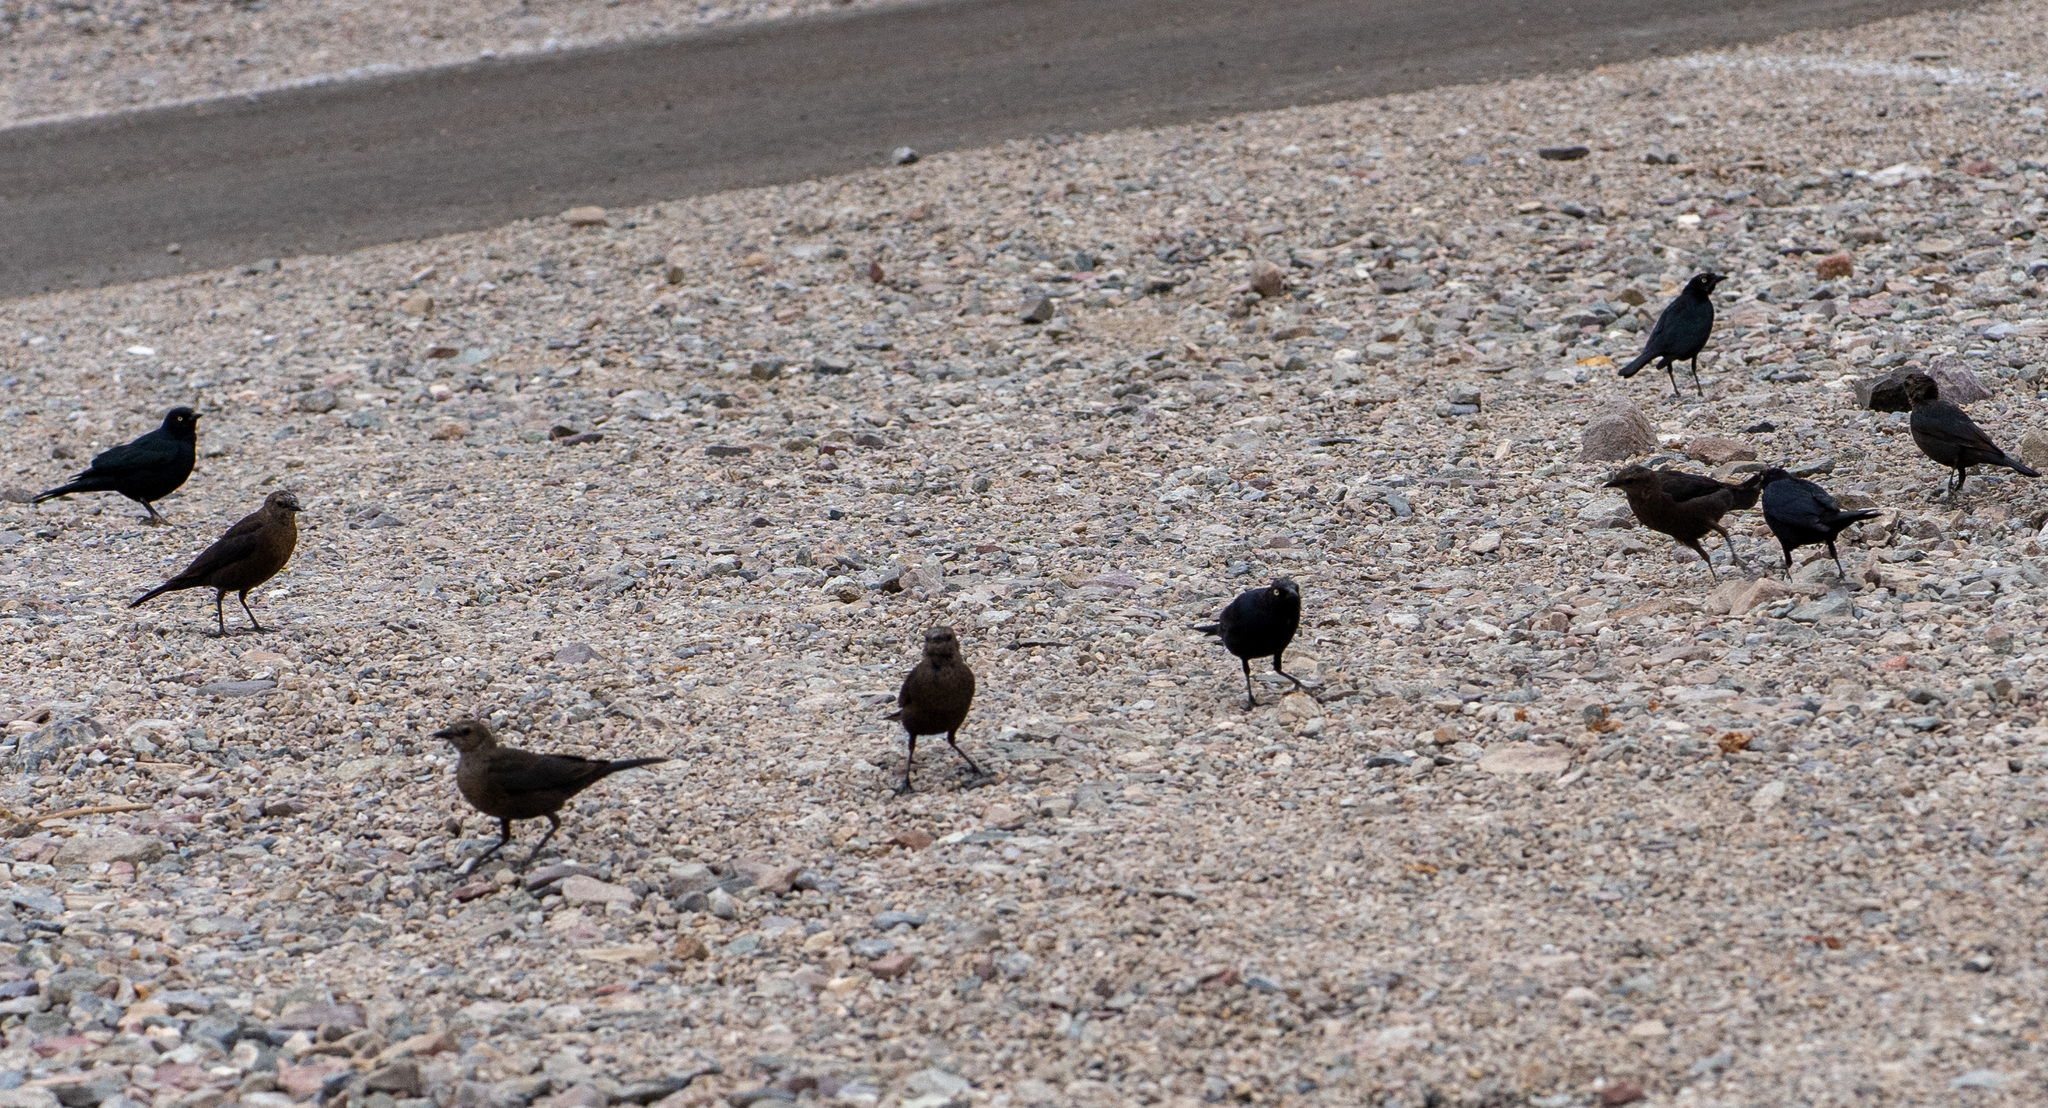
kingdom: Animalia
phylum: Chordata
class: Aves
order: Passeriformes
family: Icteridae
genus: Euphagus
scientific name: Euphagus cyanocephalus
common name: Brewer's blackbird
